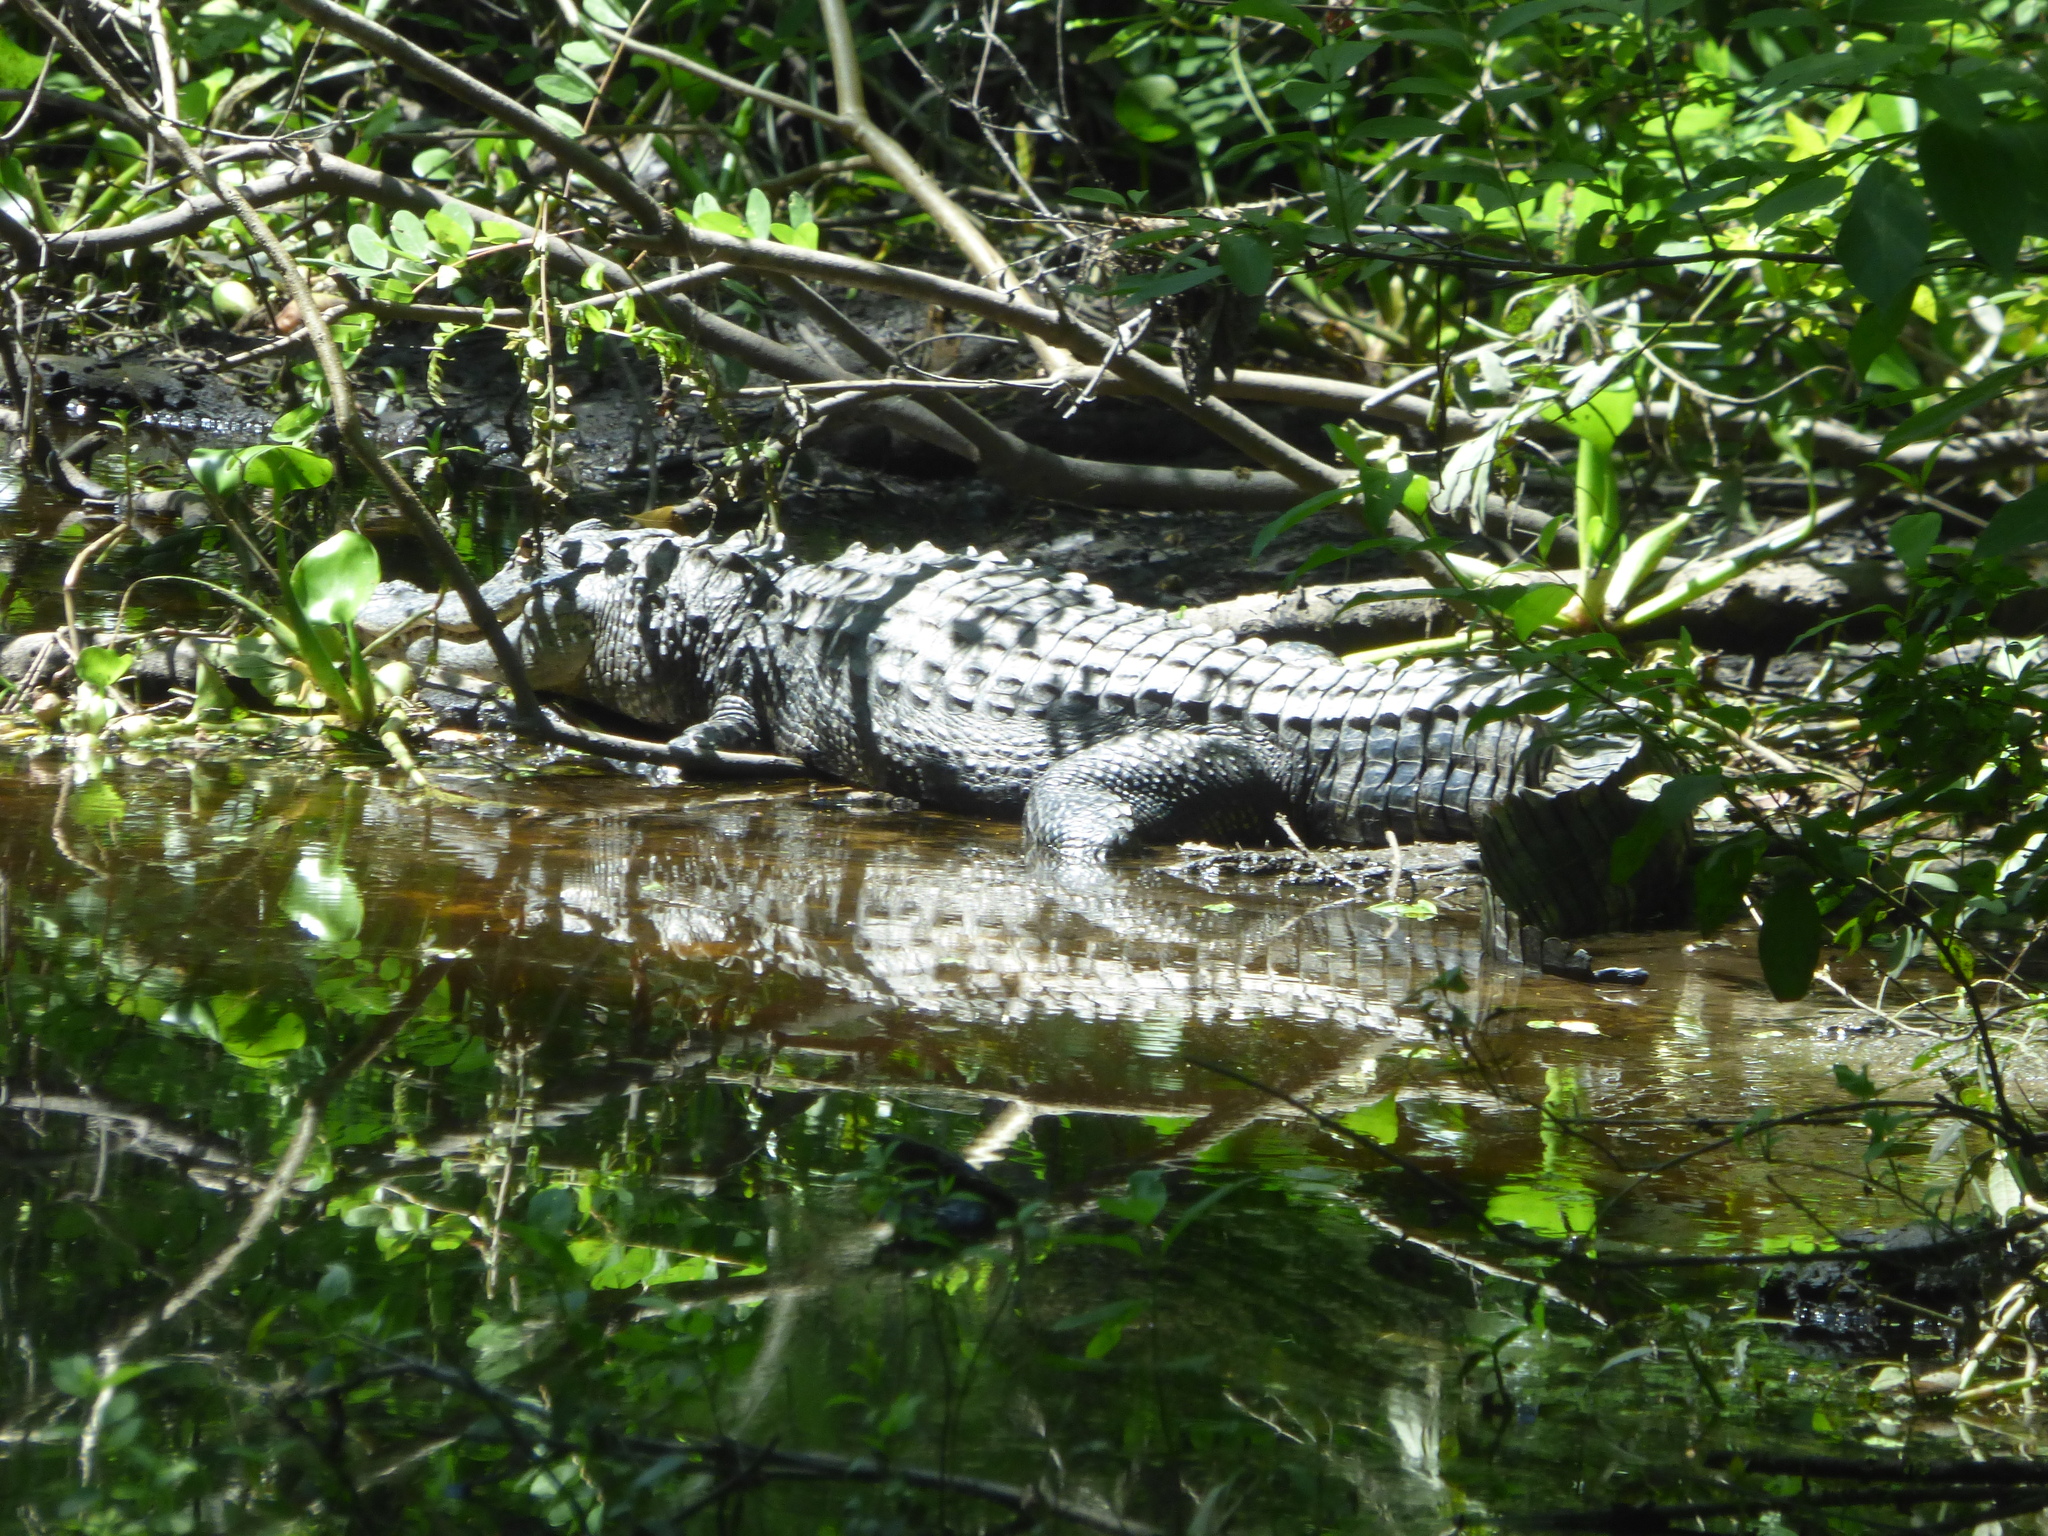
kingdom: Animalia
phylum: Chordata
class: Crocodylia
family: Alligatoridae
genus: Alligator
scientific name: Alligator mississippiensis
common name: American alligator
